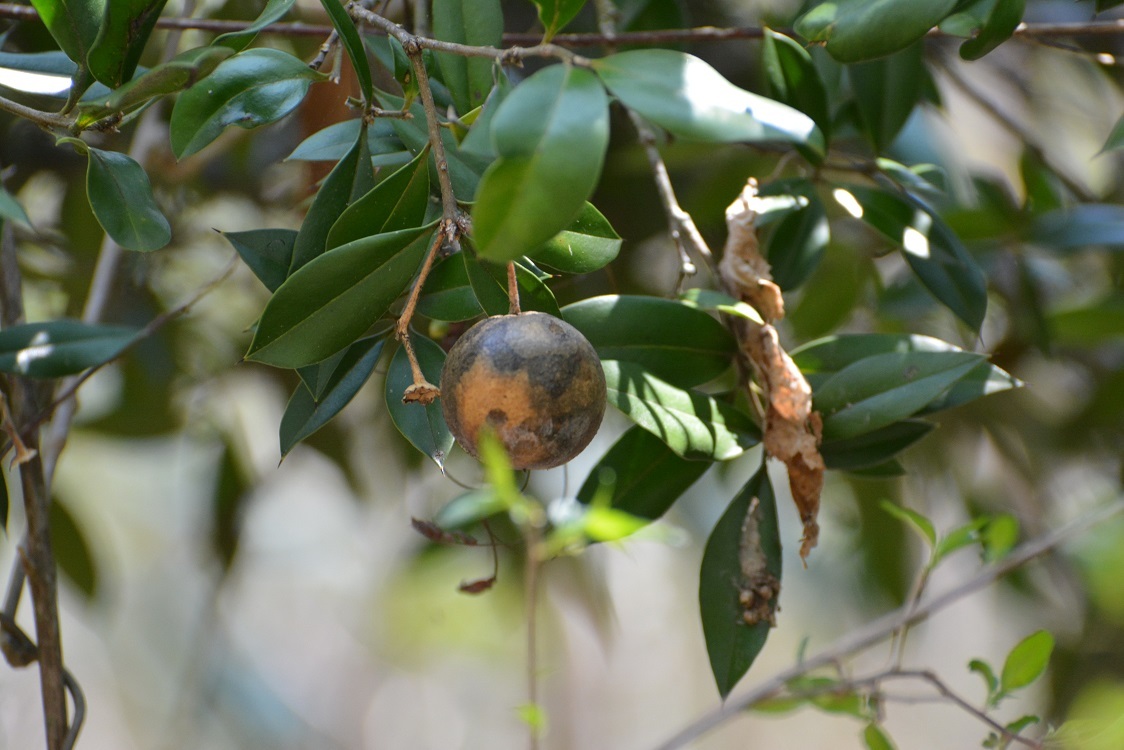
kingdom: Plantae
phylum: Tracheophyta
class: Magnoliopsida
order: Ericales
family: Primulaceae
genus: Bonellia
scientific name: Bonellia macrocarpa
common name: Primrose
